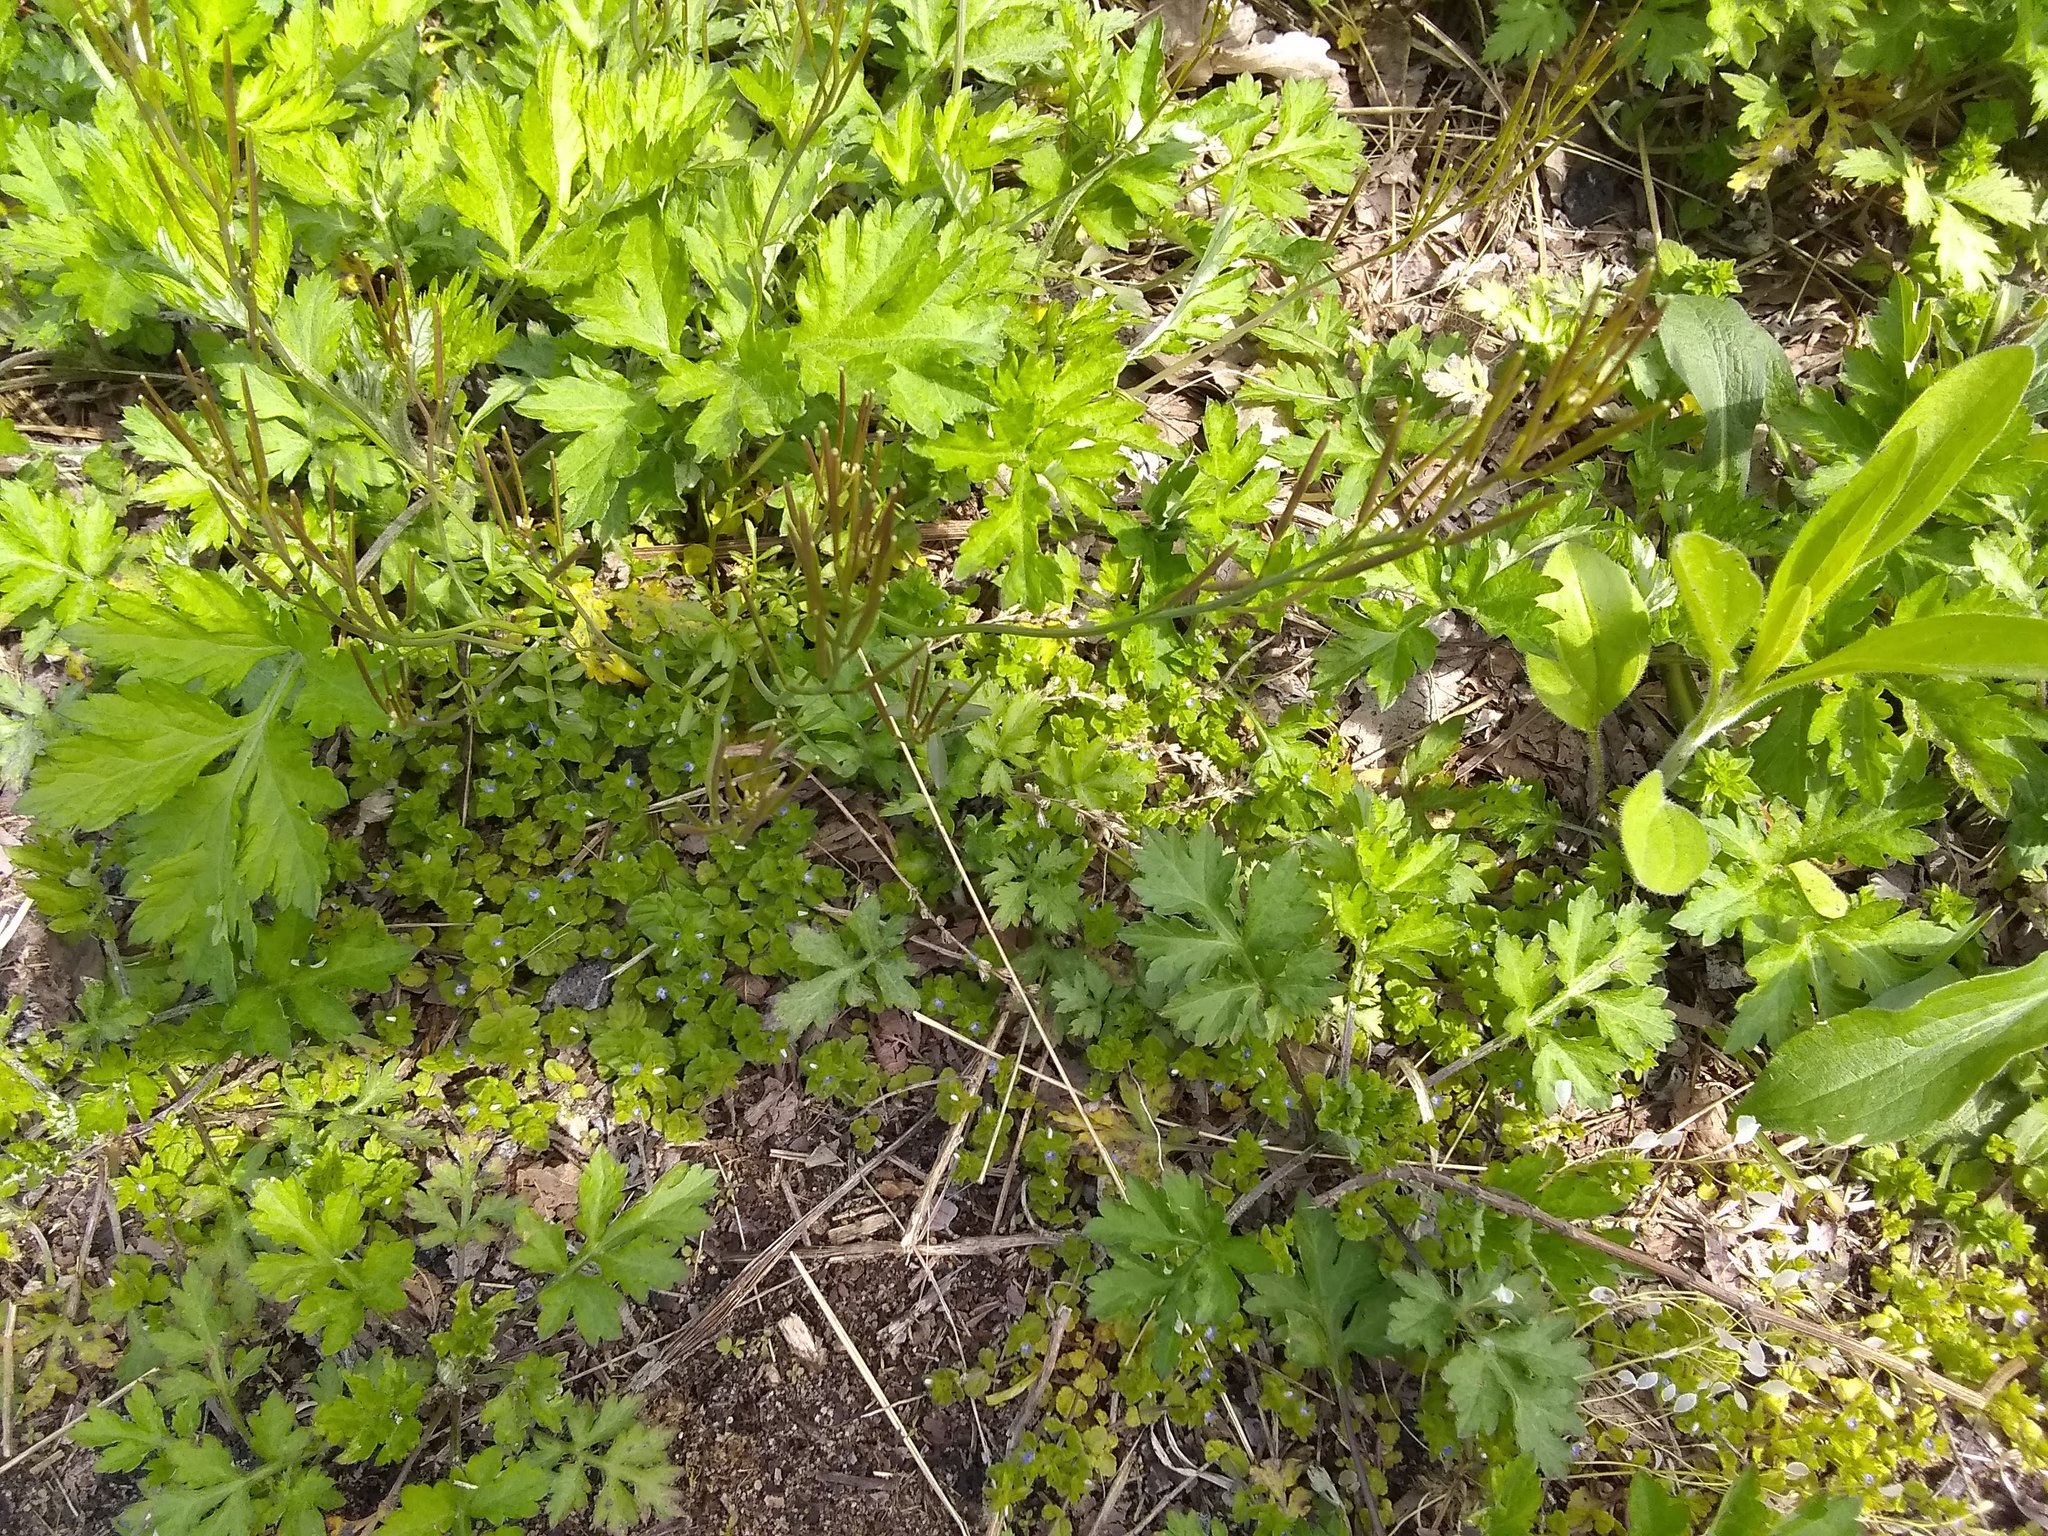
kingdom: Plantae
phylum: Tracheophyta
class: Magnoliopsida
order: Brassicales
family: Brassicaceae
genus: Cardamine
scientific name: Cardamine hirsuta
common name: Hairy bittercress
